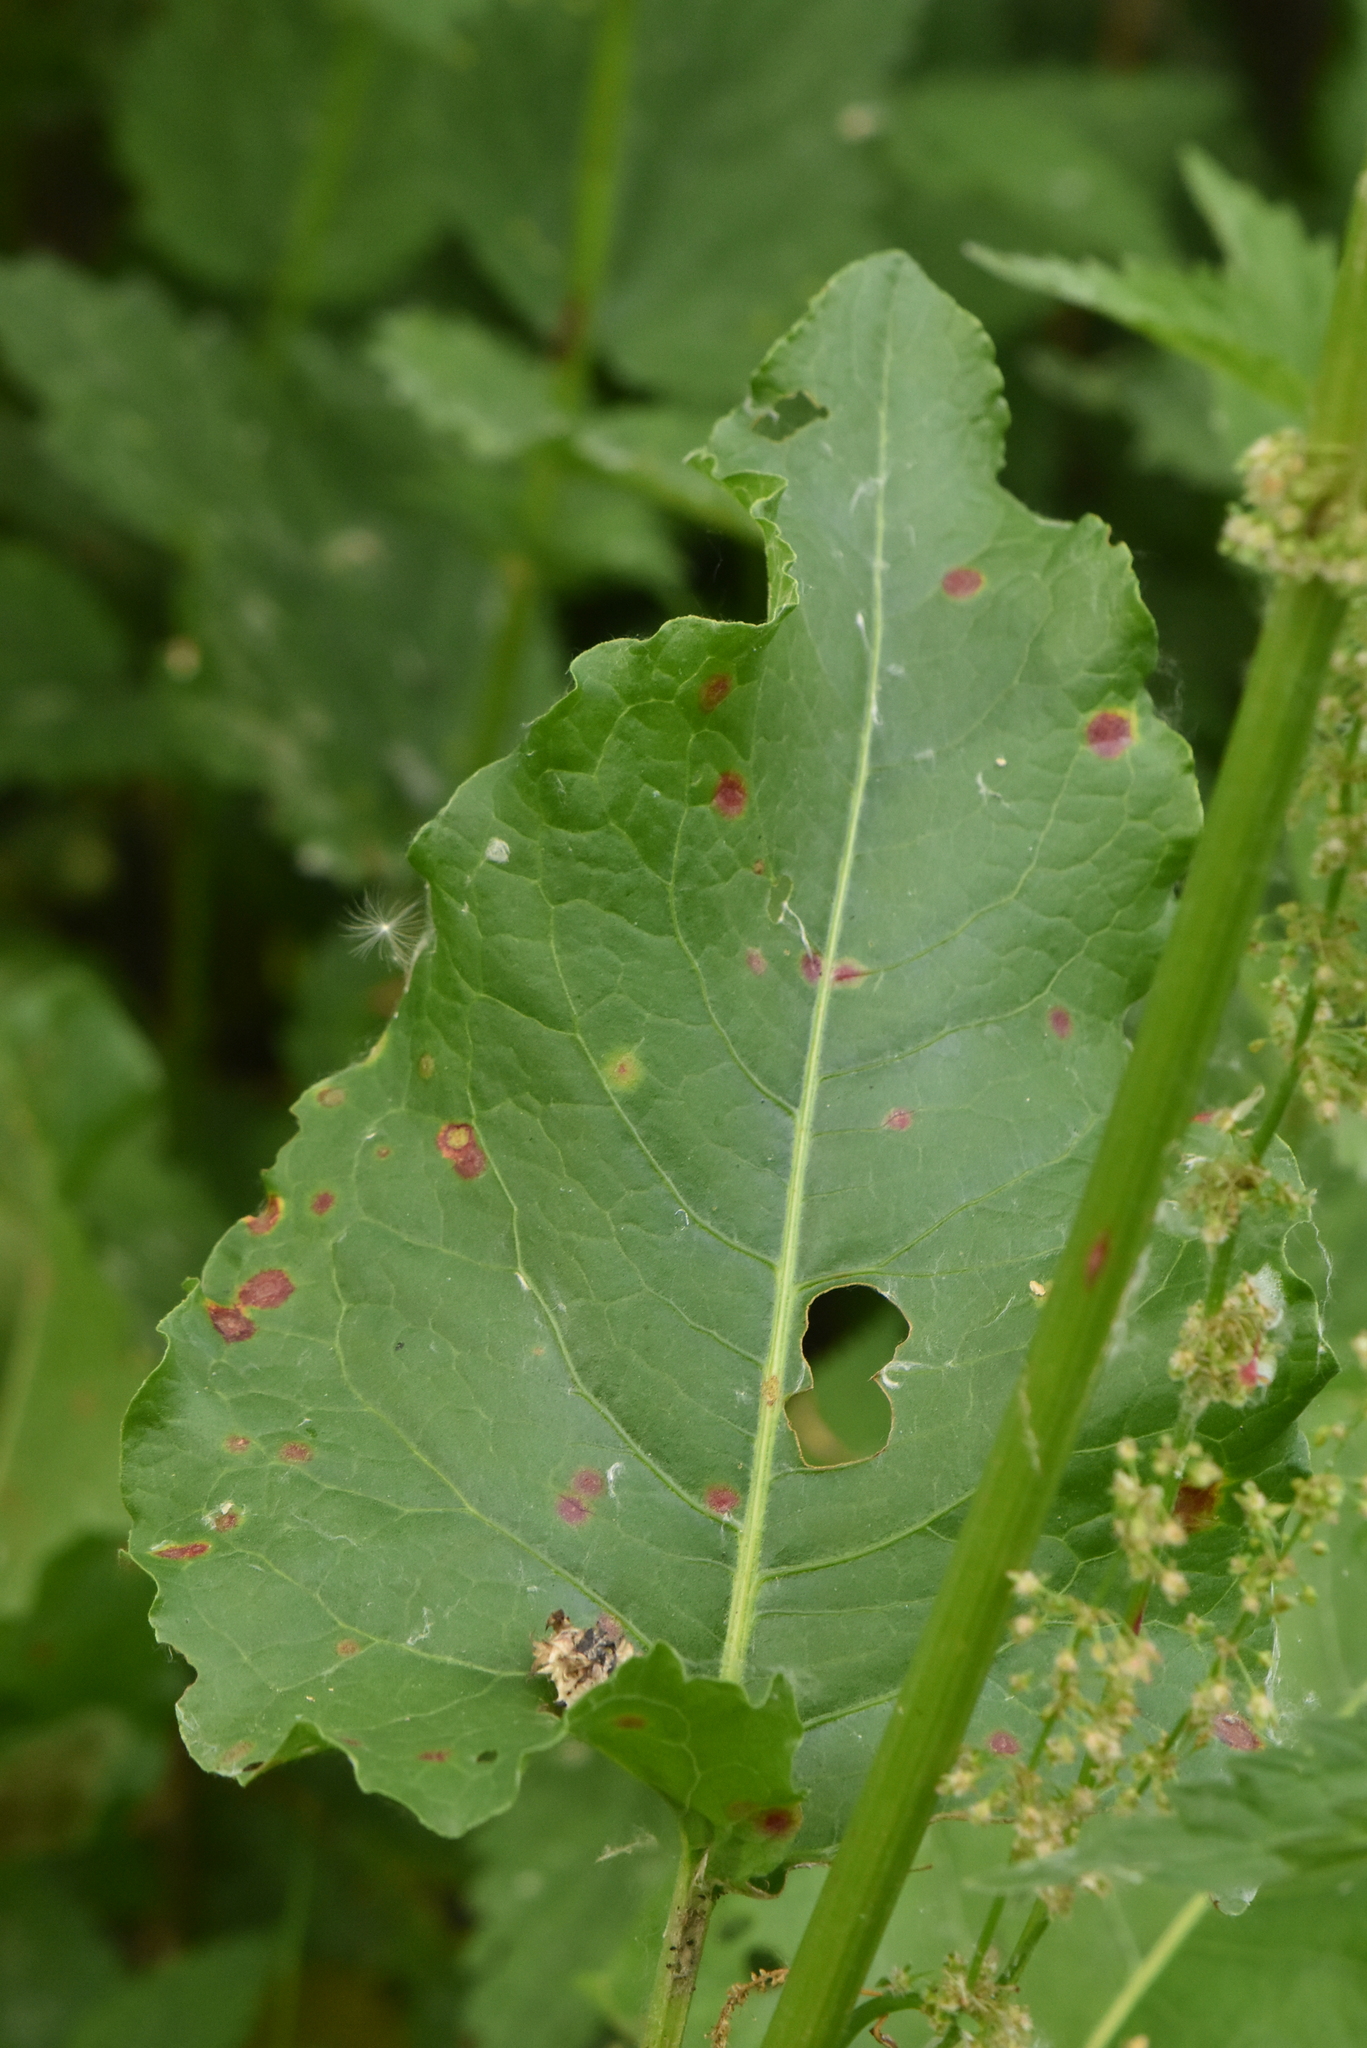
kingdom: Plantae
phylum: Tracheophyta
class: Magnoliopsida
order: Caryophyllales
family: Polygonaceae
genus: Rumex
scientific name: Rumex aquaticus
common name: Scottish dock
